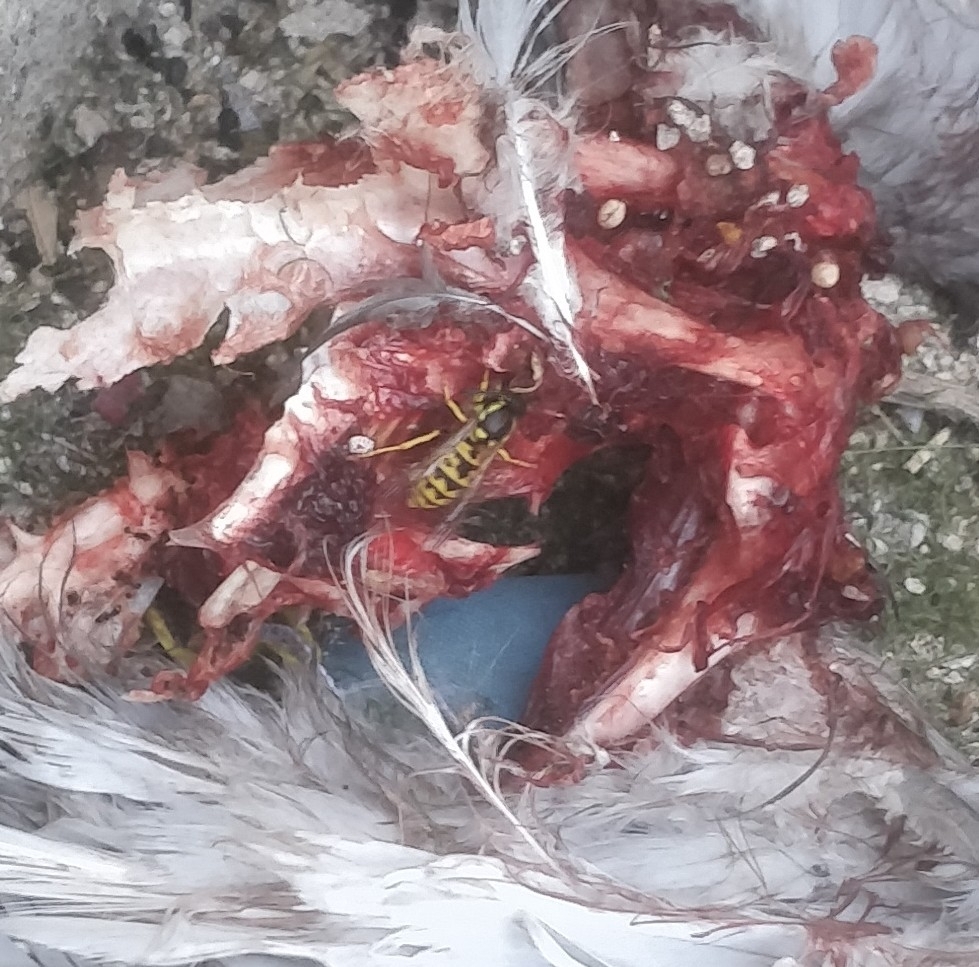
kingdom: Animalia
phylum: Arthropoda
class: Insecta
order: Hymenoptera
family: Vespidae
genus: Vespula
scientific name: Vespula germanica
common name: German wasp
